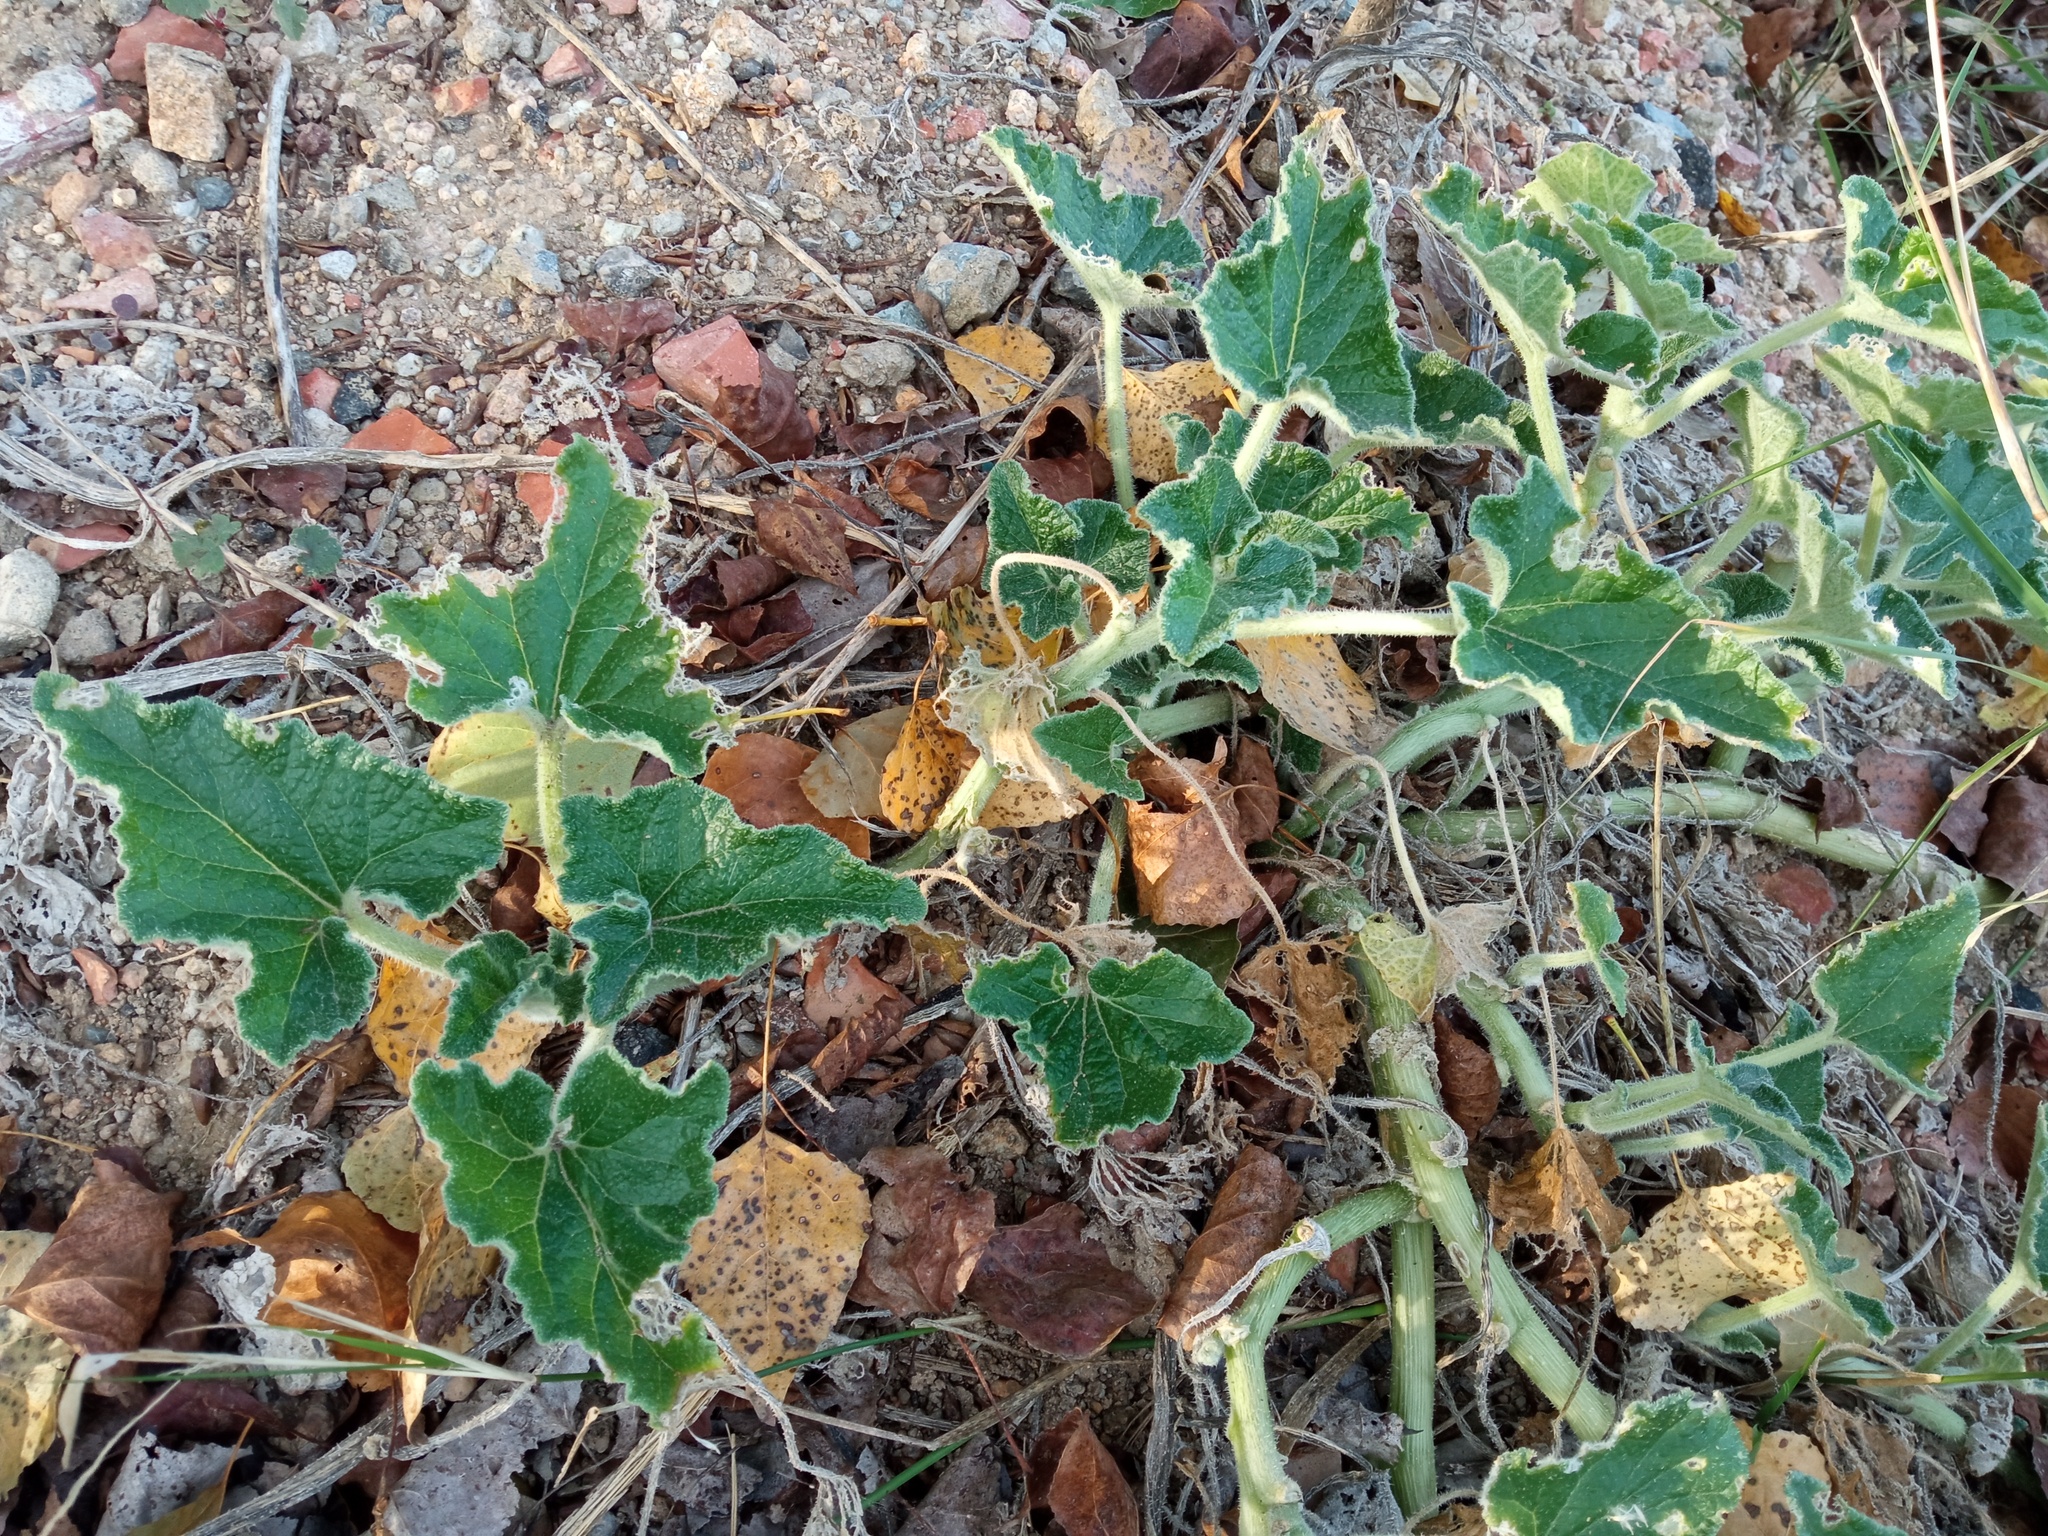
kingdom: Plantae
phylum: Tracheophyta
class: Magnoliopsida
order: Cucurbitales
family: Cucurbitaceae
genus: Ecballium
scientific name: Ecballium elaterium
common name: Squirting cucumber
